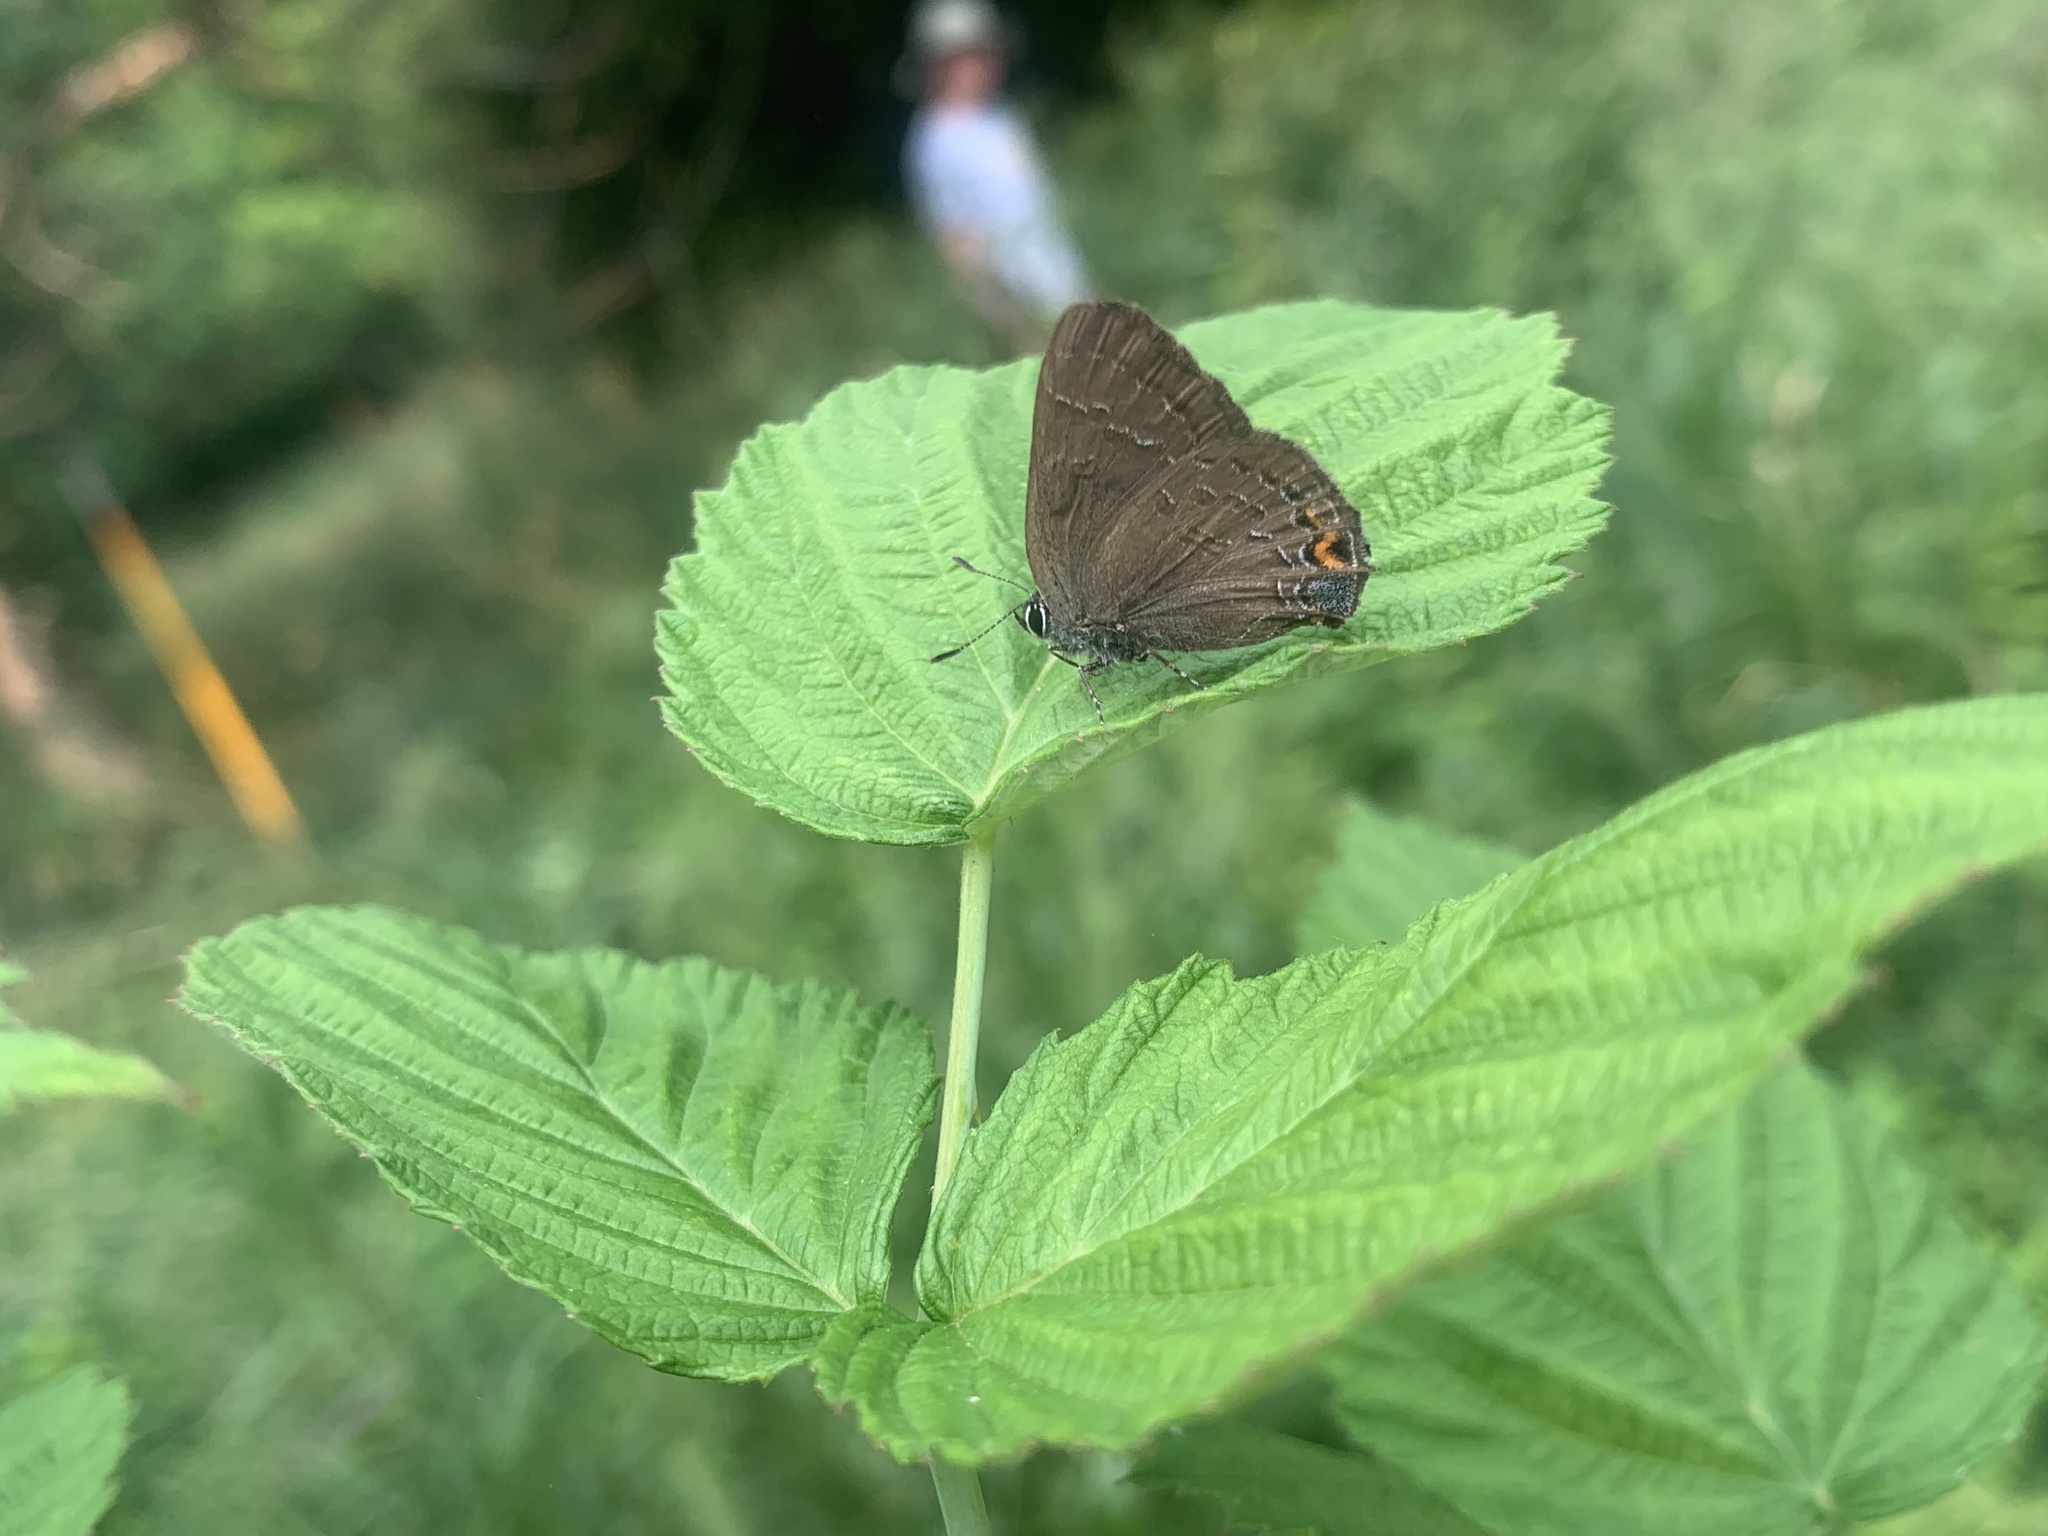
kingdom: Animalia
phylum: Arthropoda
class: Insecta
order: Lepidoptera
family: Lycaenidae
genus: Satyrium
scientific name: Satyrium calanus
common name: Banded hairstreak
